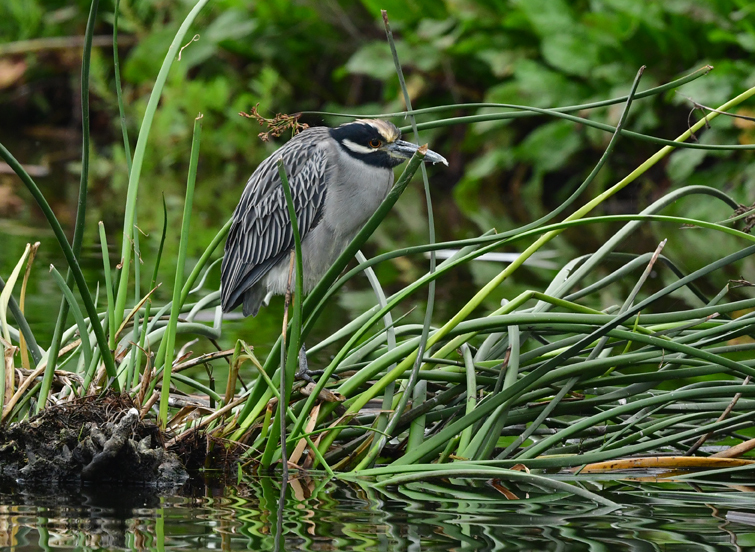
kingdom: Animalia
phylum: Chordata
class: Aves
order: Pelecaniformes
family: Ardeidae
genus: Nyctanassa
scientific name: Nyctanassa violacea
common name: Yellow-crowned night heron
